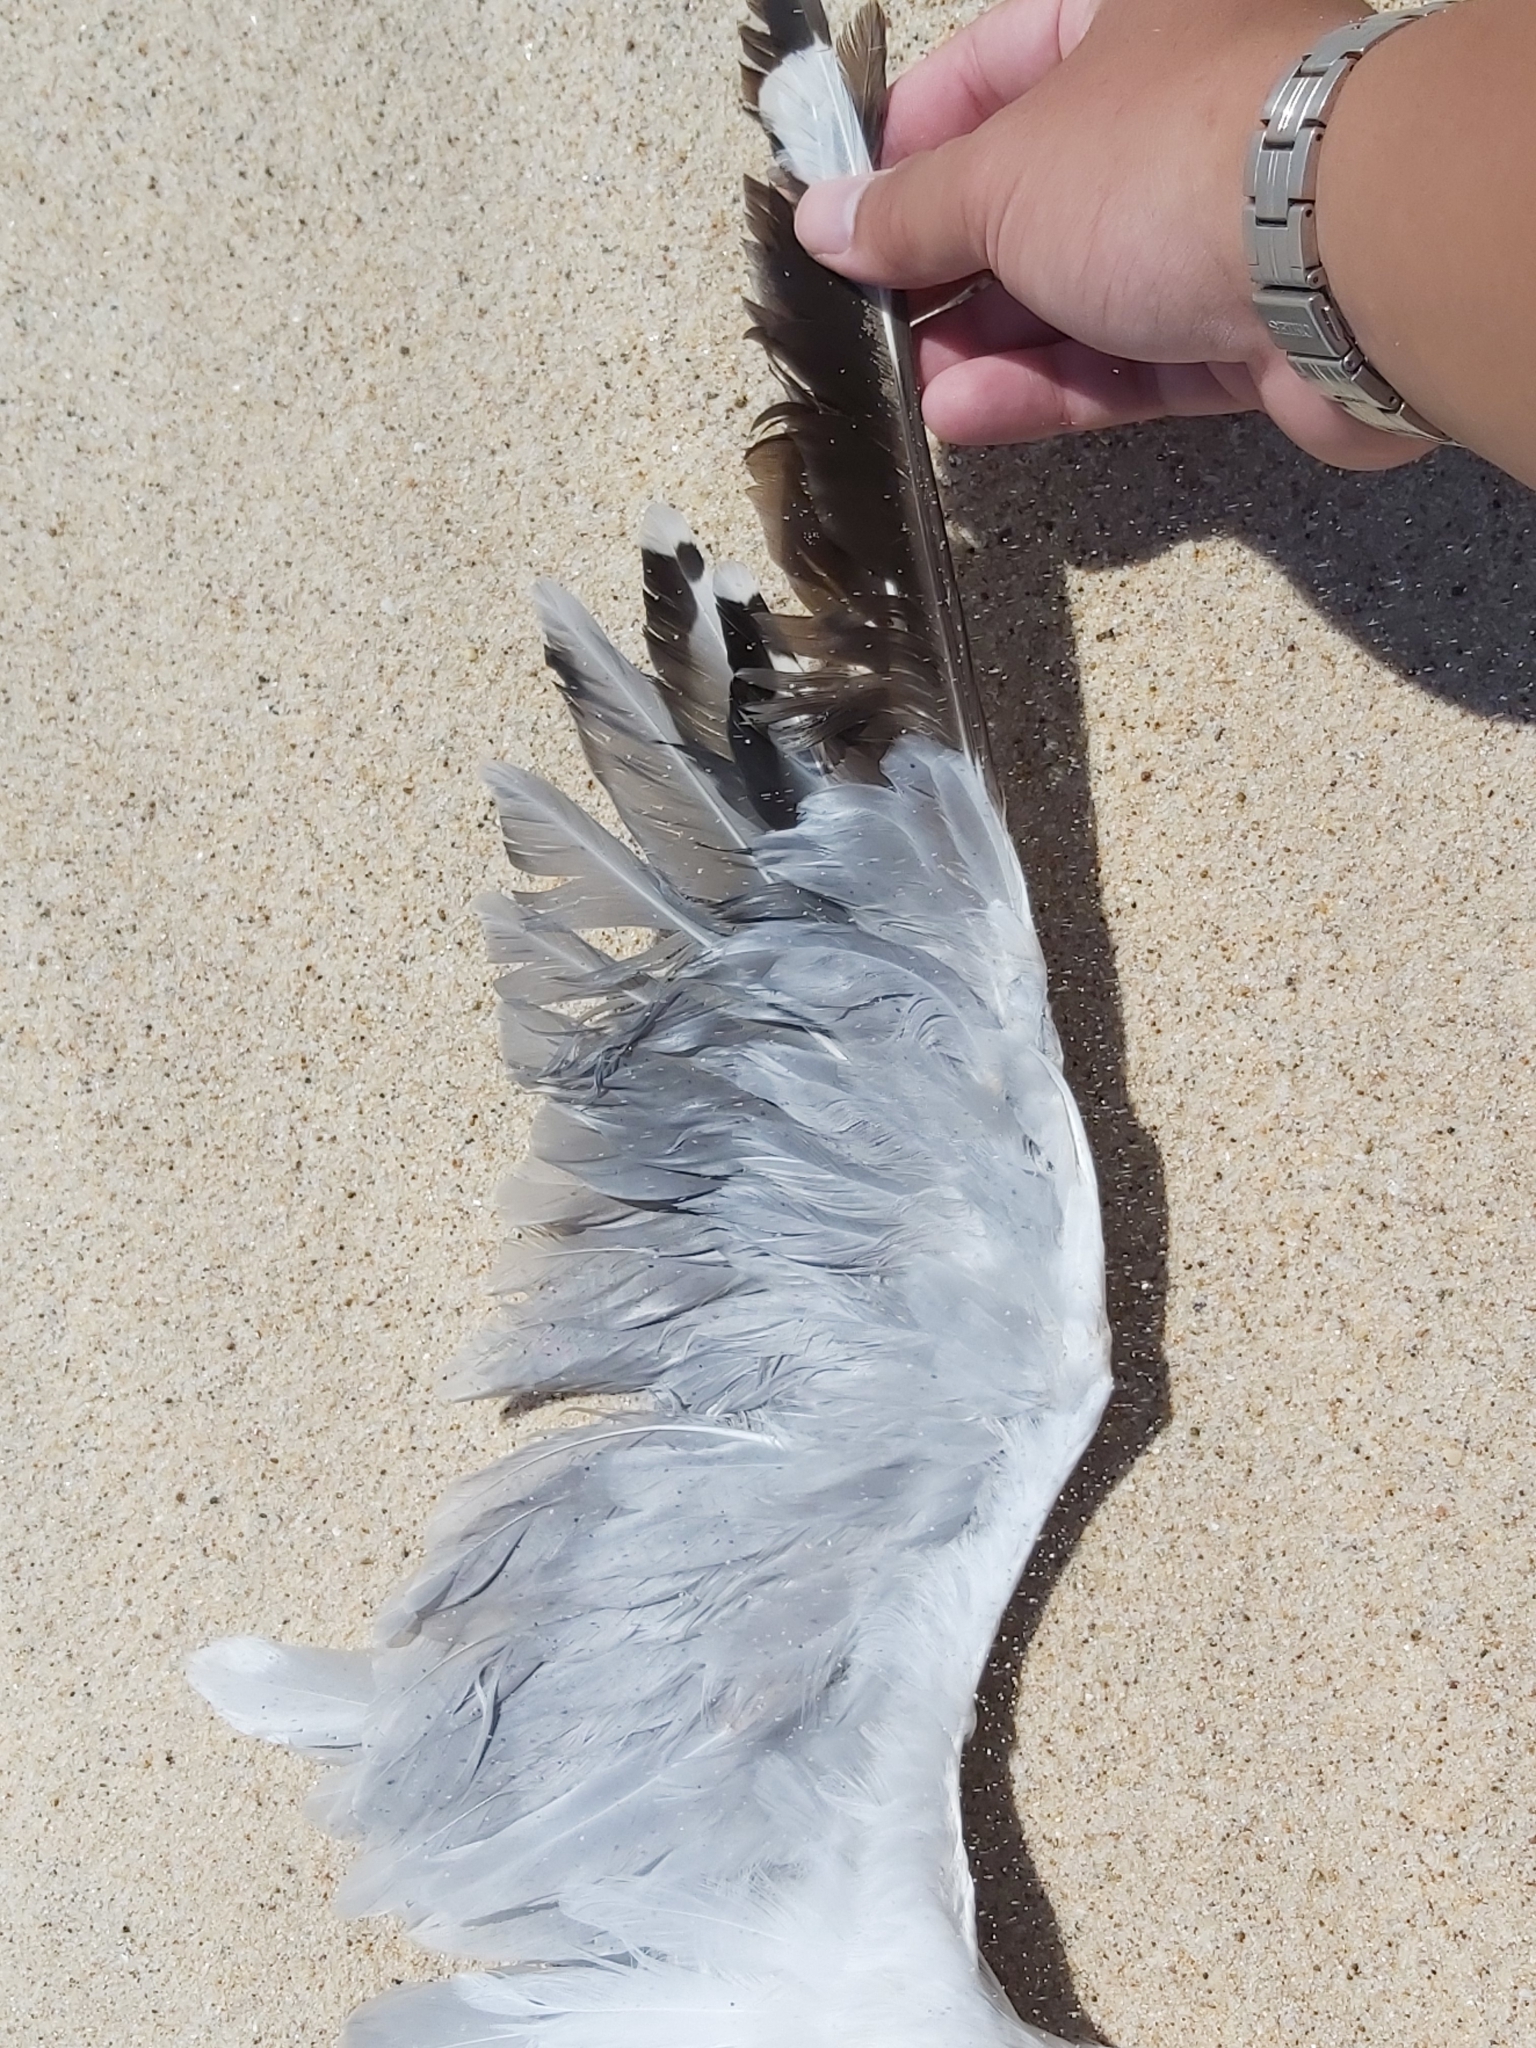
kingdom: Animalia
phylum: Chordata
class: Aves
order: Charadriiformes
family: Laridae
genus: Chroicocephalus
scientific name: Chroicocephalus novaehollandiae
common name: Silver gull
